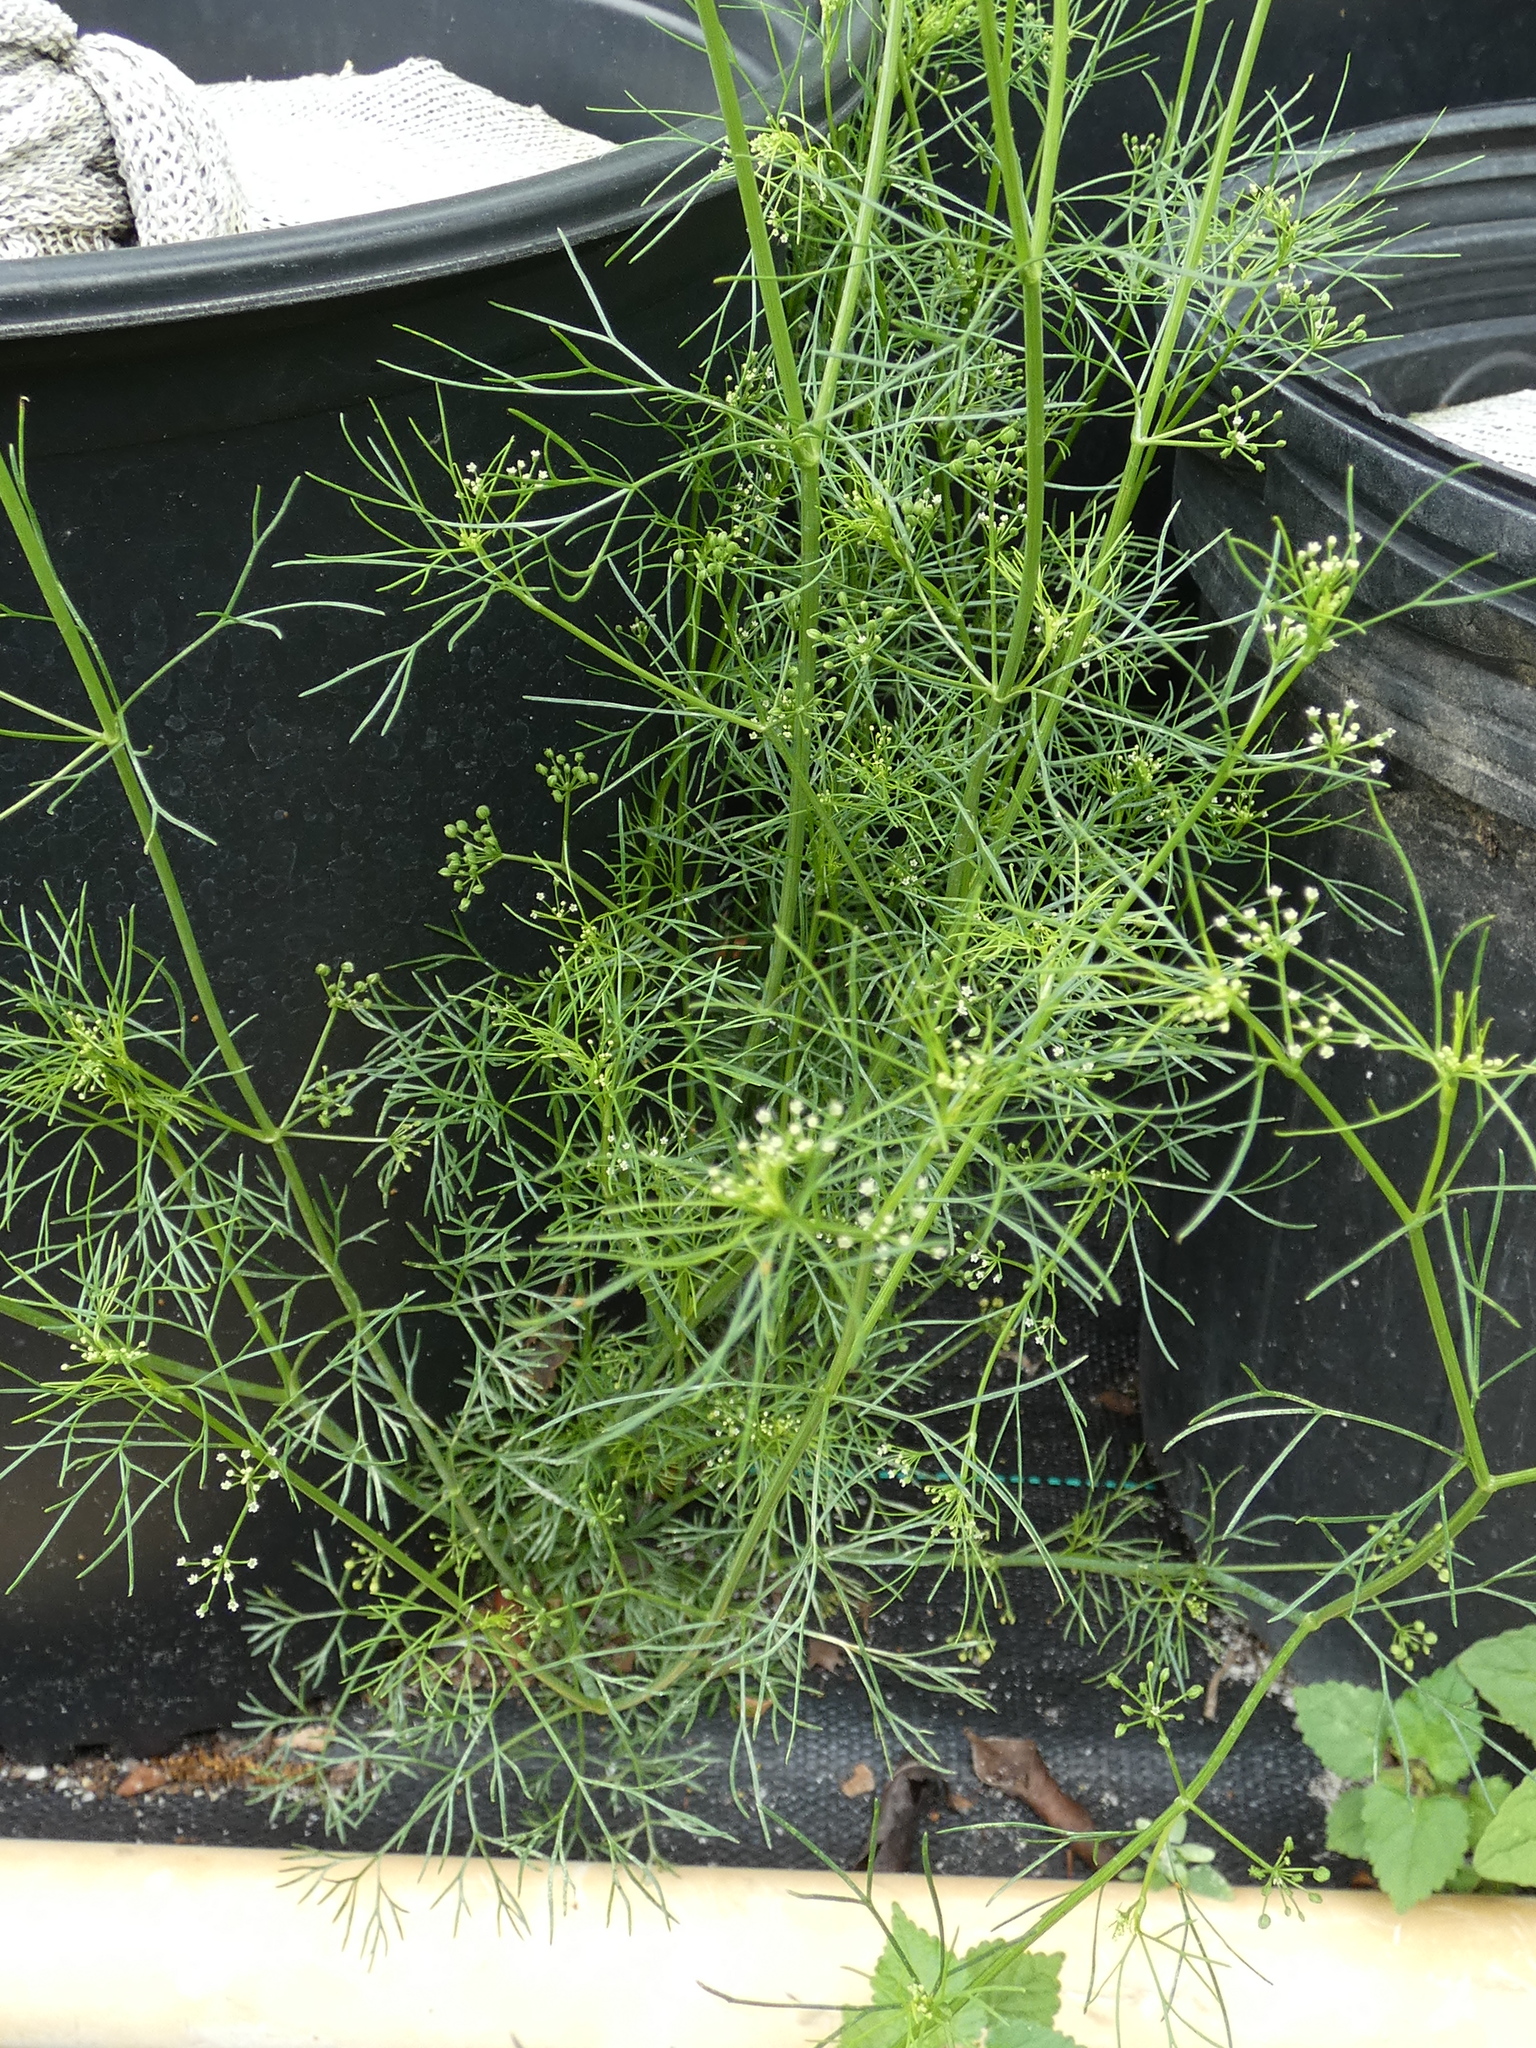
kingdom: Plantae
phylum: Tracheophyta
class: Magnoliopsida
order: Apiales
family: Apiaceae
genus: Cyclospermum
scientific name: Cyclospermum leptophyllum
